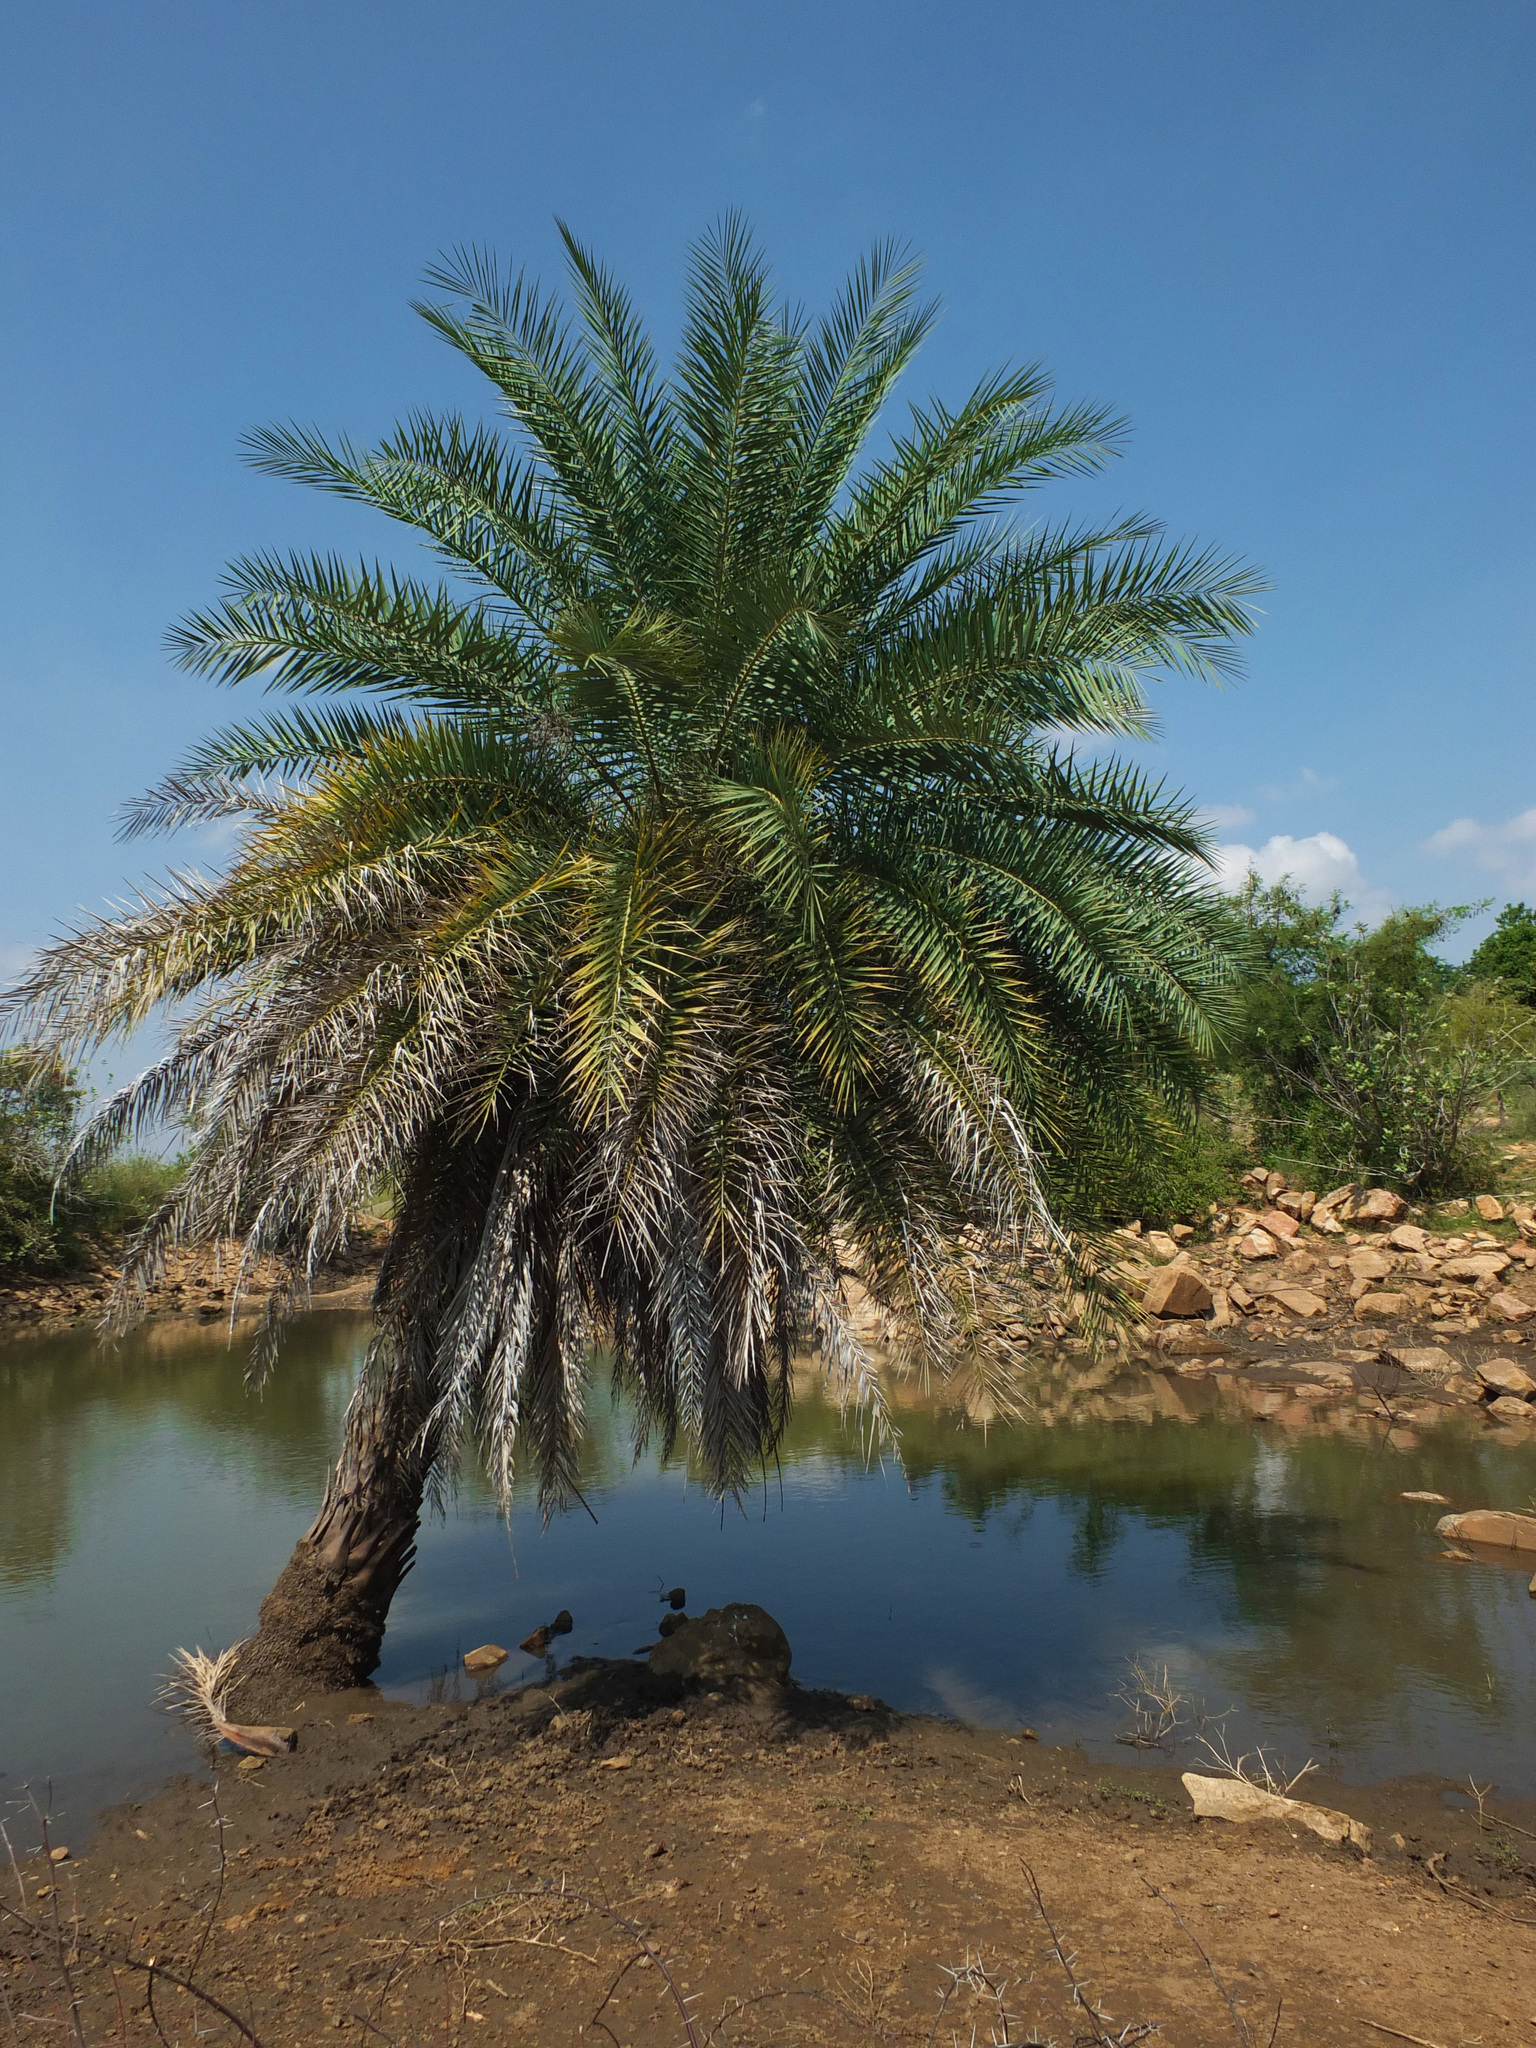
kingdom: Plantae
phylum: Tracheophyta
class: Liliopsida
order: Arecales
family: Arecaceae
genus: Phoenix
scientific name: Phoenix sylvestris
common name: Wild date palm
